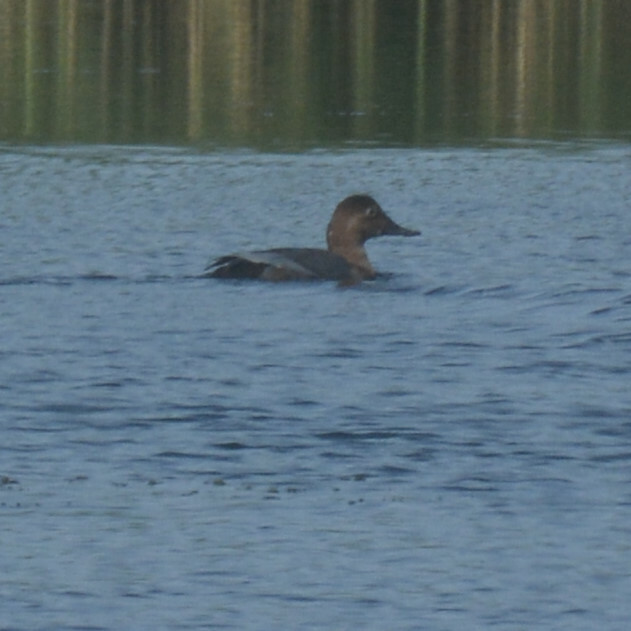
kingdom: Animalia
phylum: Chordata
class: Aves
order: Anseriformes
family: Anatidae
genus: Aythya
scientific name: Aythya ferina
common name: Common pochard
